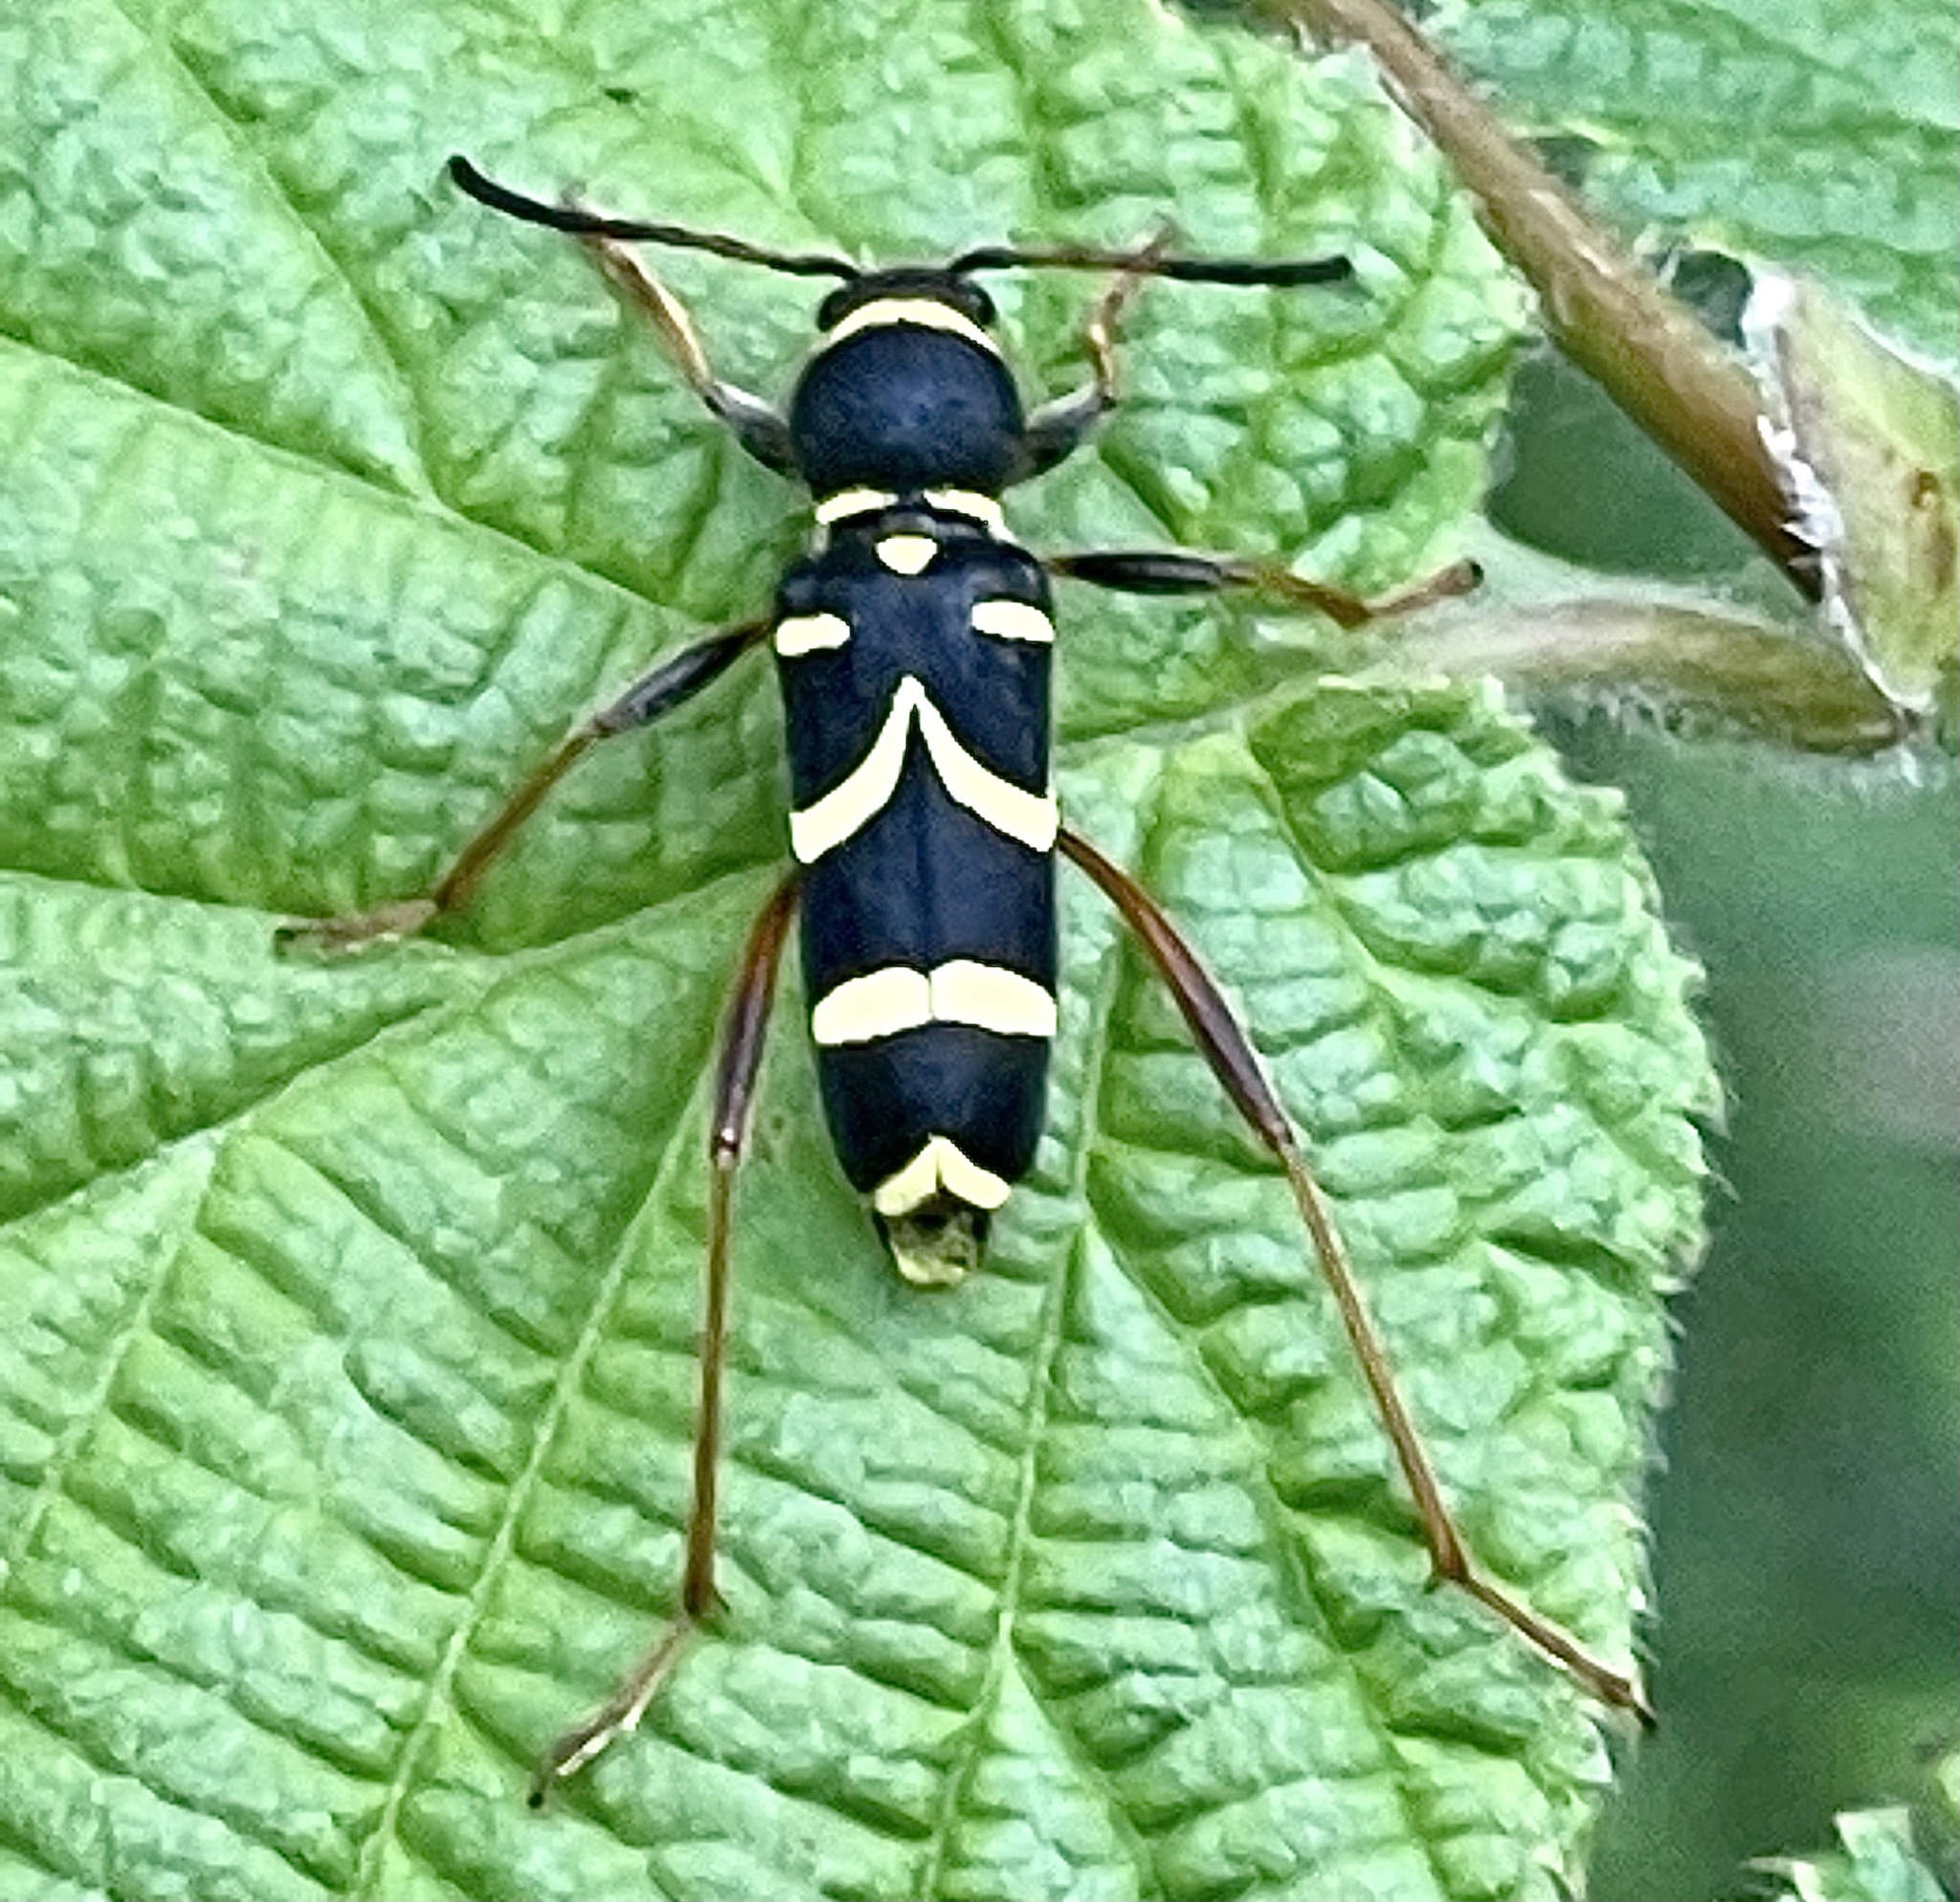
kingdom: Animalia
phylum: Arthropoda
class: Insecta
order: Coleoptera
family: Cerambycidae
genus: Clytus
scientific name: Clytus arietis
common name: Wasp beetle
